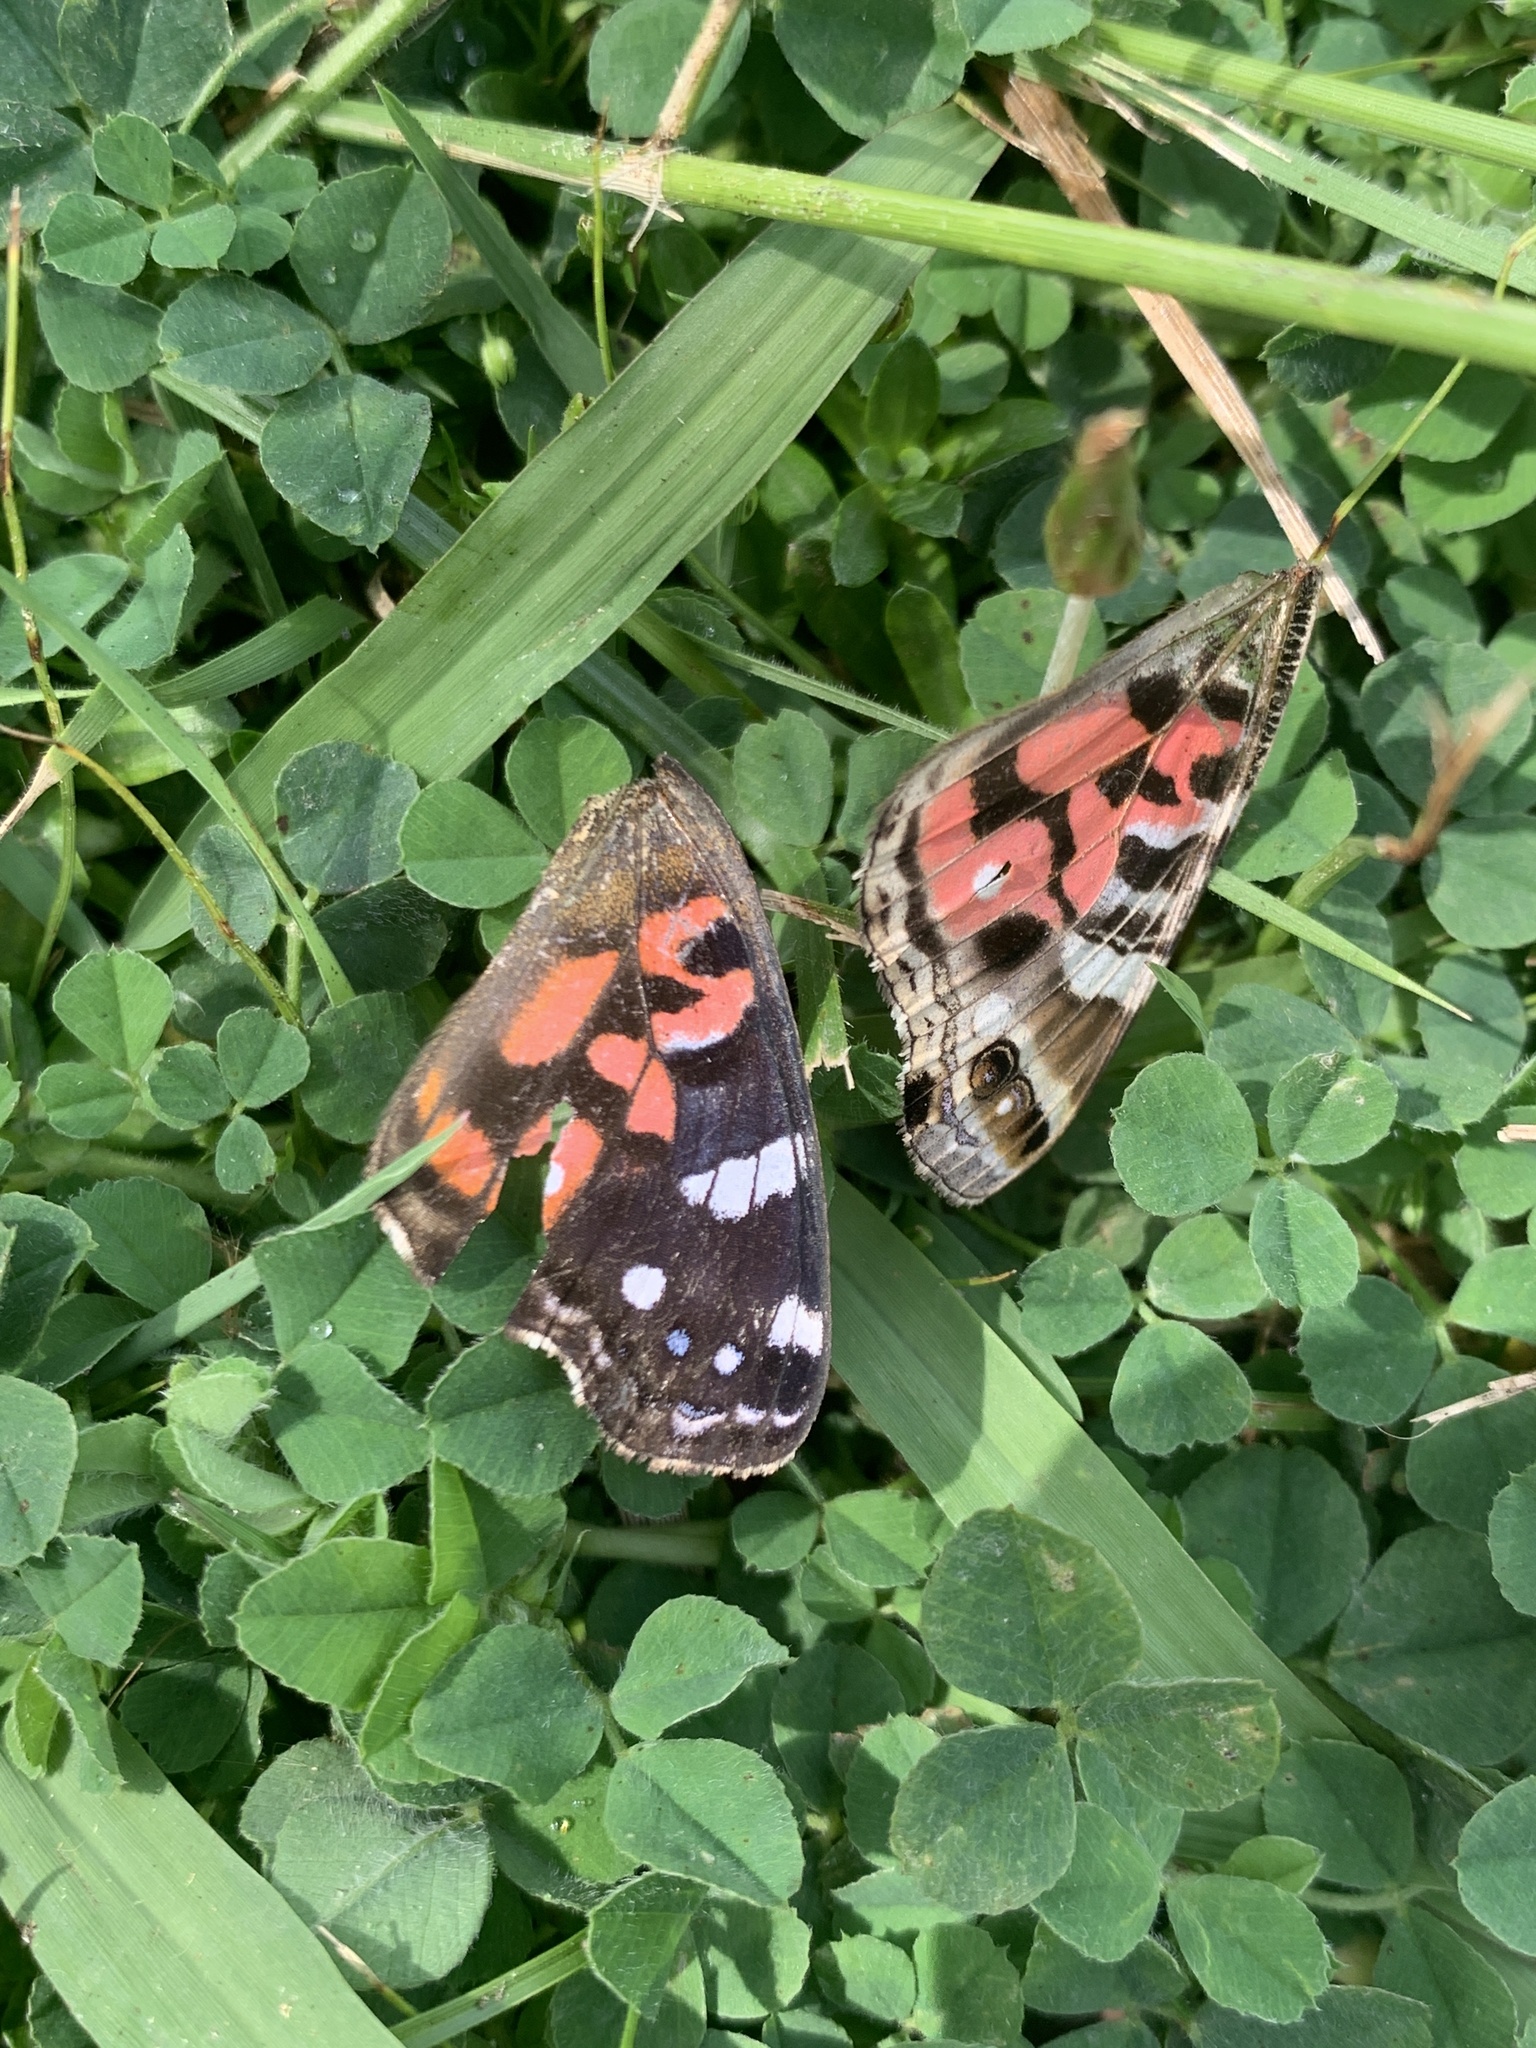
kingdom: Animalia
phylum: Arthropoda
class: Insecta
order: Lepidoptera
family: Nymphalidae
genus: Vanessa
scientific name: Vanessa braziliensis
